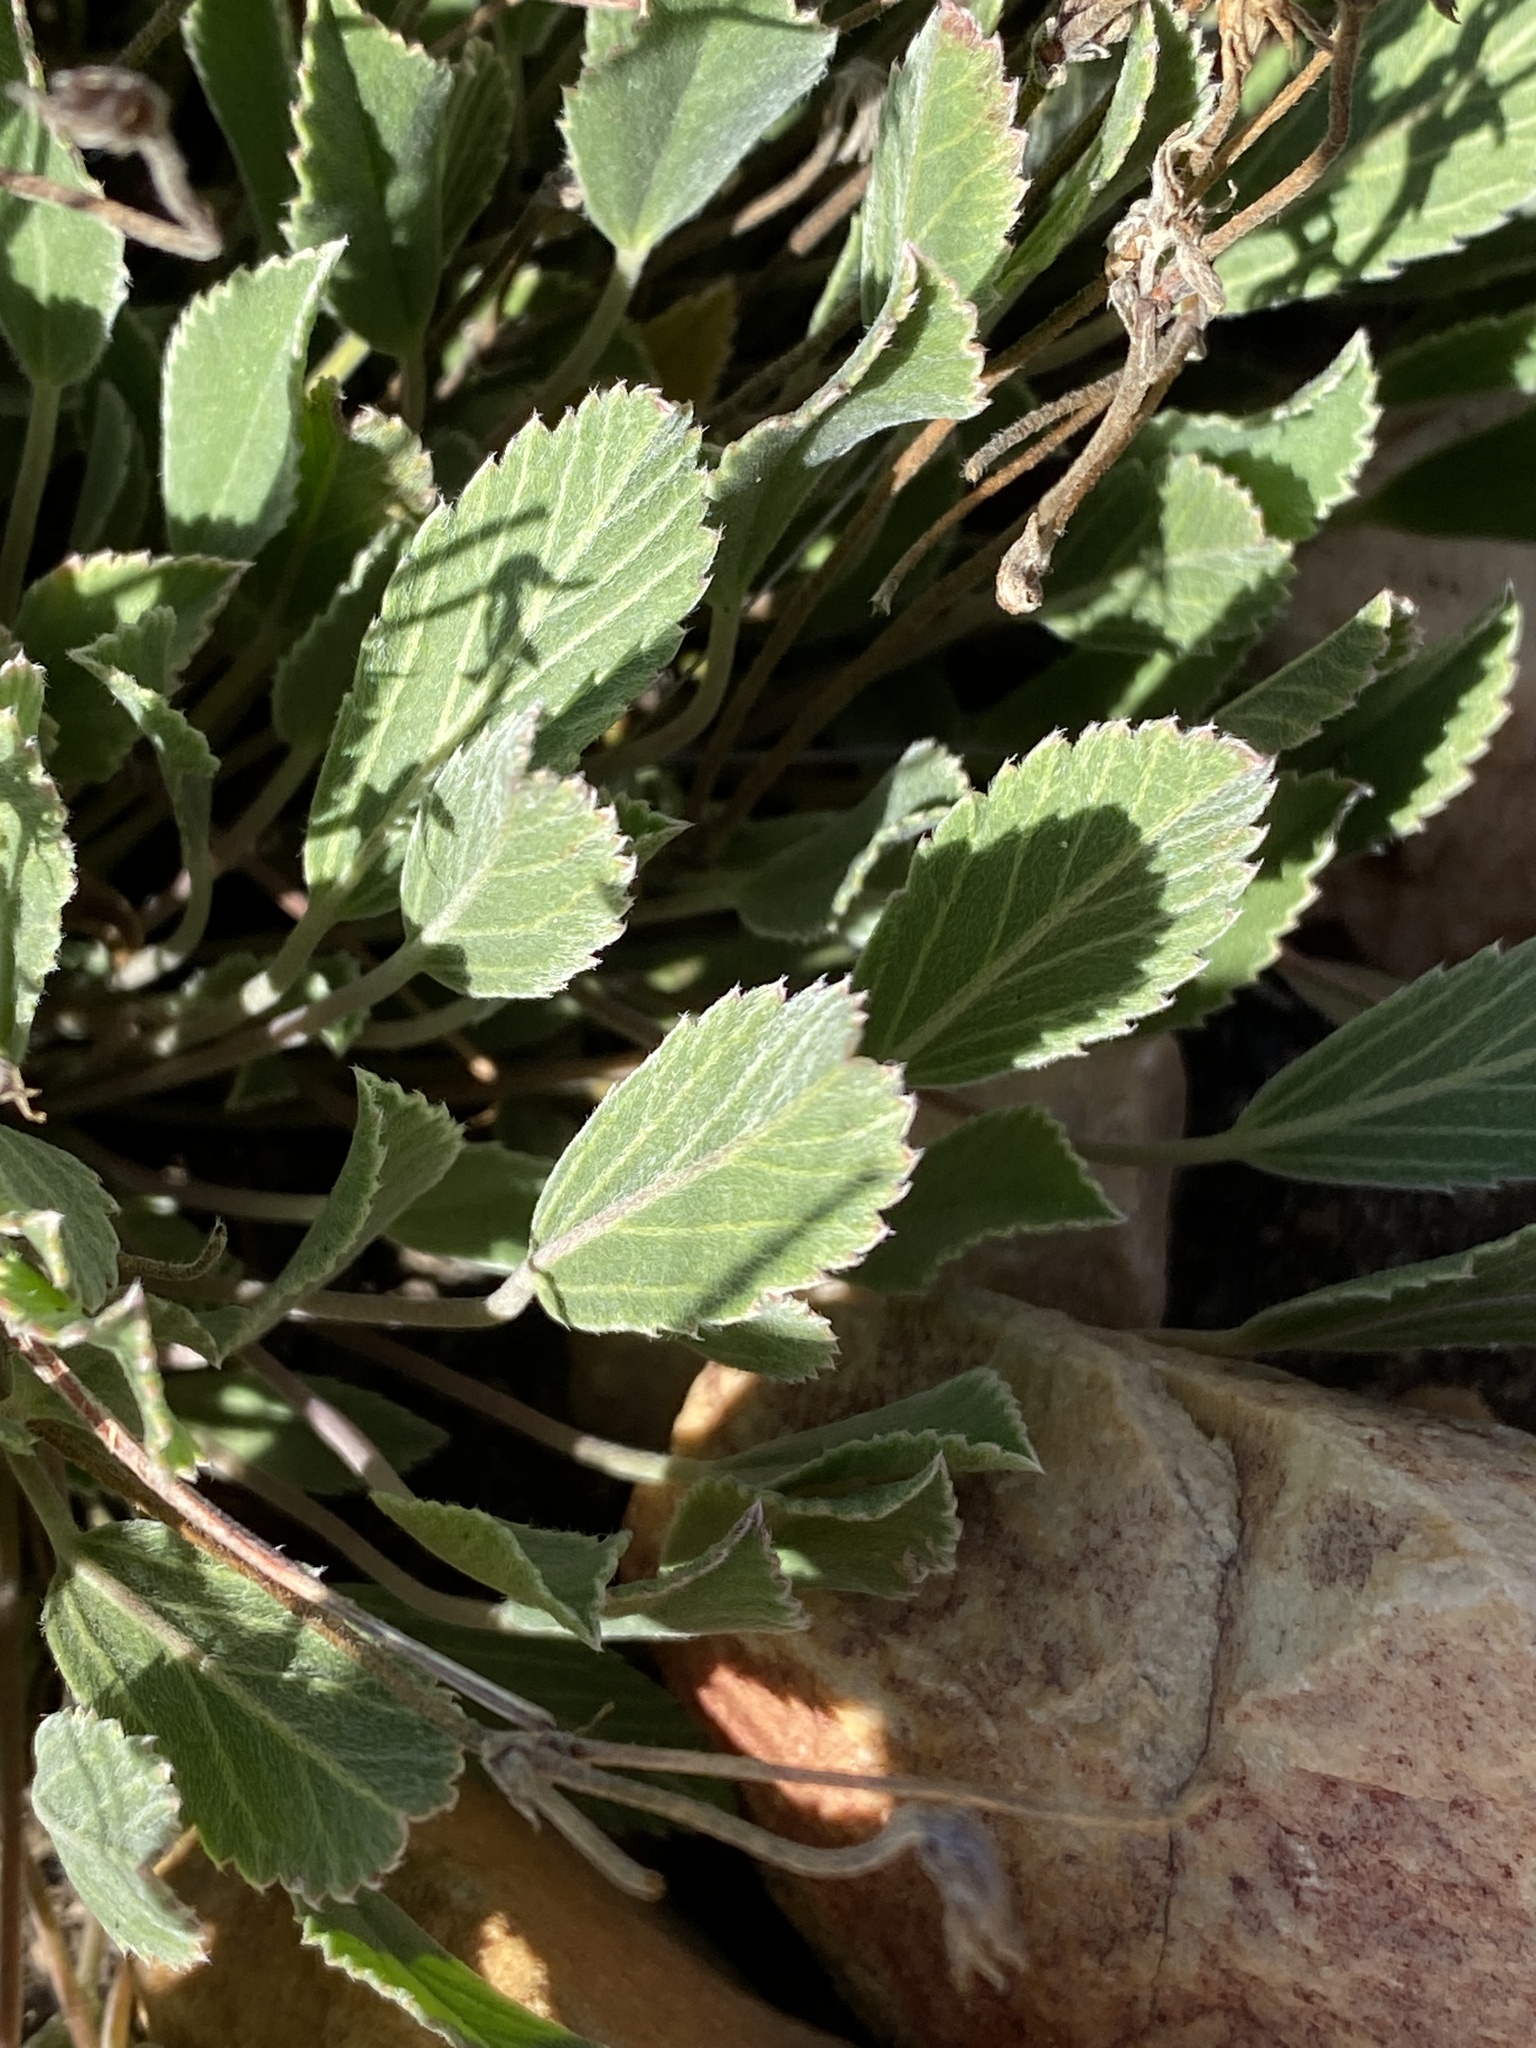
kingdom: Plantae
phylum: Tracheophyta
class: Magnoliopsida
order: Geraniales
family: Geraniaceae
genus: Pelargonium
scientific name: Pelargonium ovale
